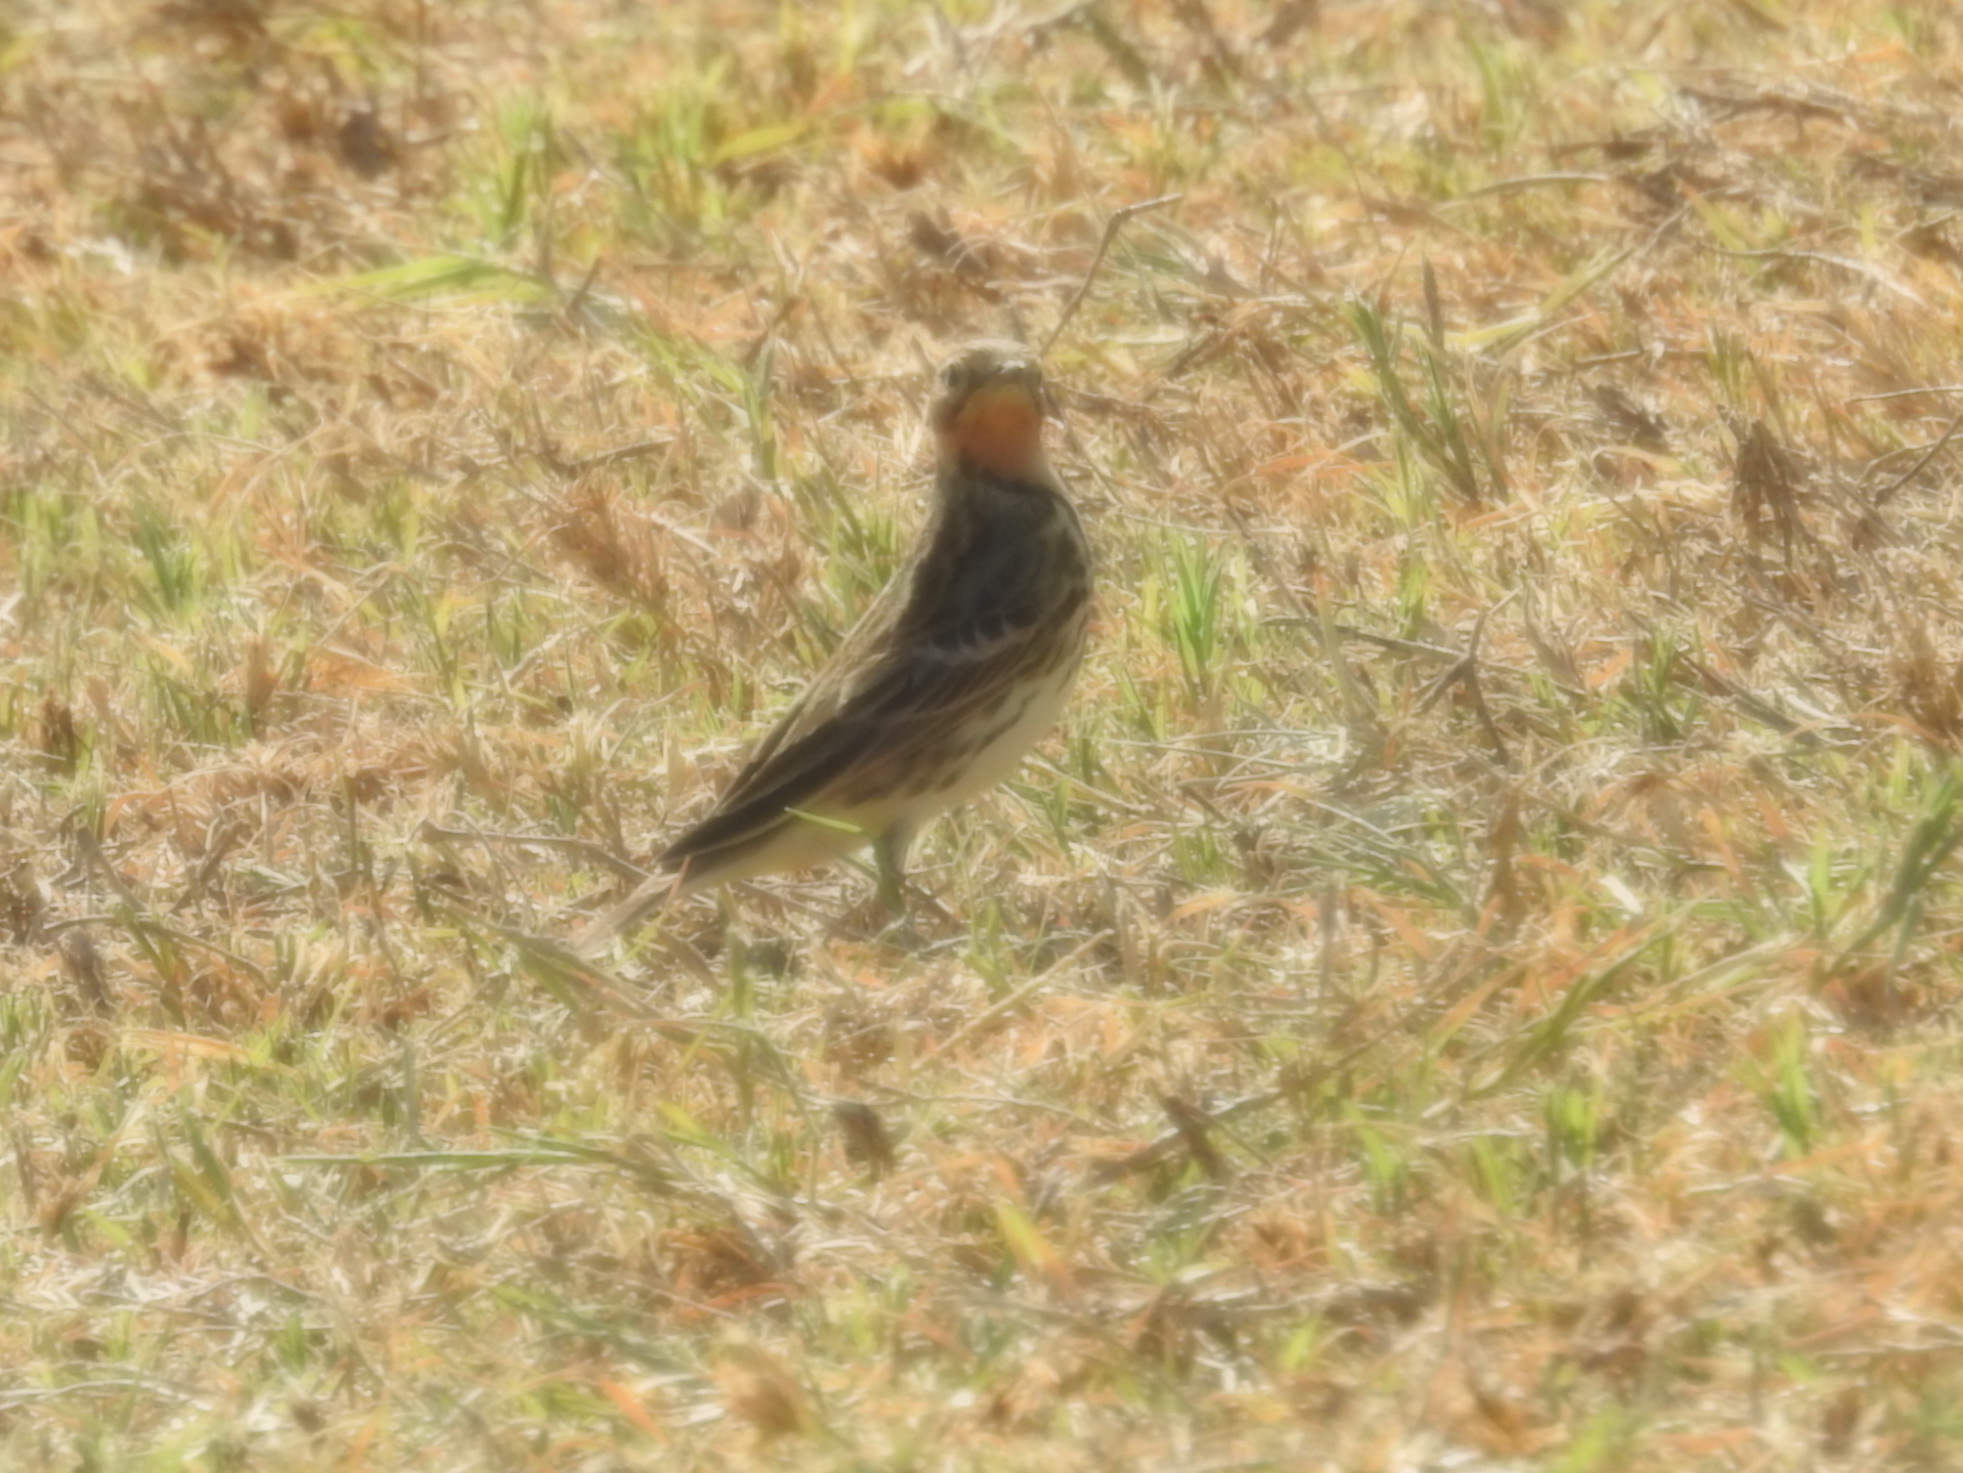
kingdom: Animalia
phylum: Chordata
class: Aves
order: Passeriformes
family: Motacillidae
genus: Anthus
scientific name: Anthus cervinus
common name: Red-throated pipit
